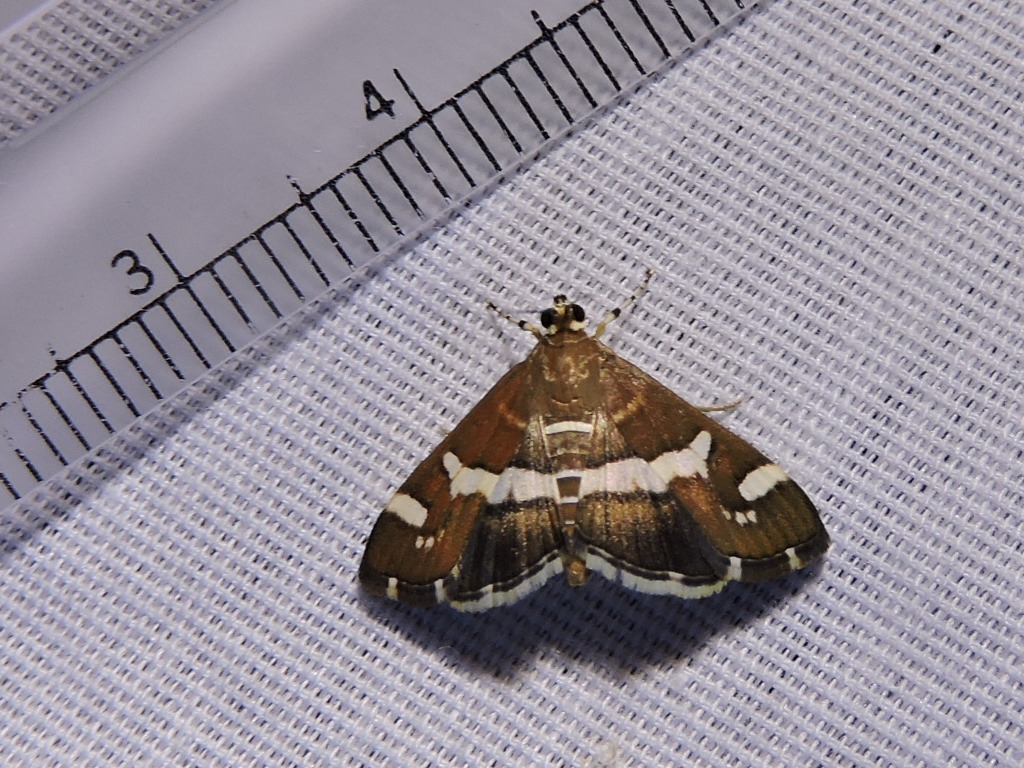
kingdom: Animalia
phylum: Arthropoda
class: Insecta
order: Lepidoptera
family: Crambidae
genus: Spoladea
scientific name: Spoladea recurvalis
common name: Beet webworm moth
